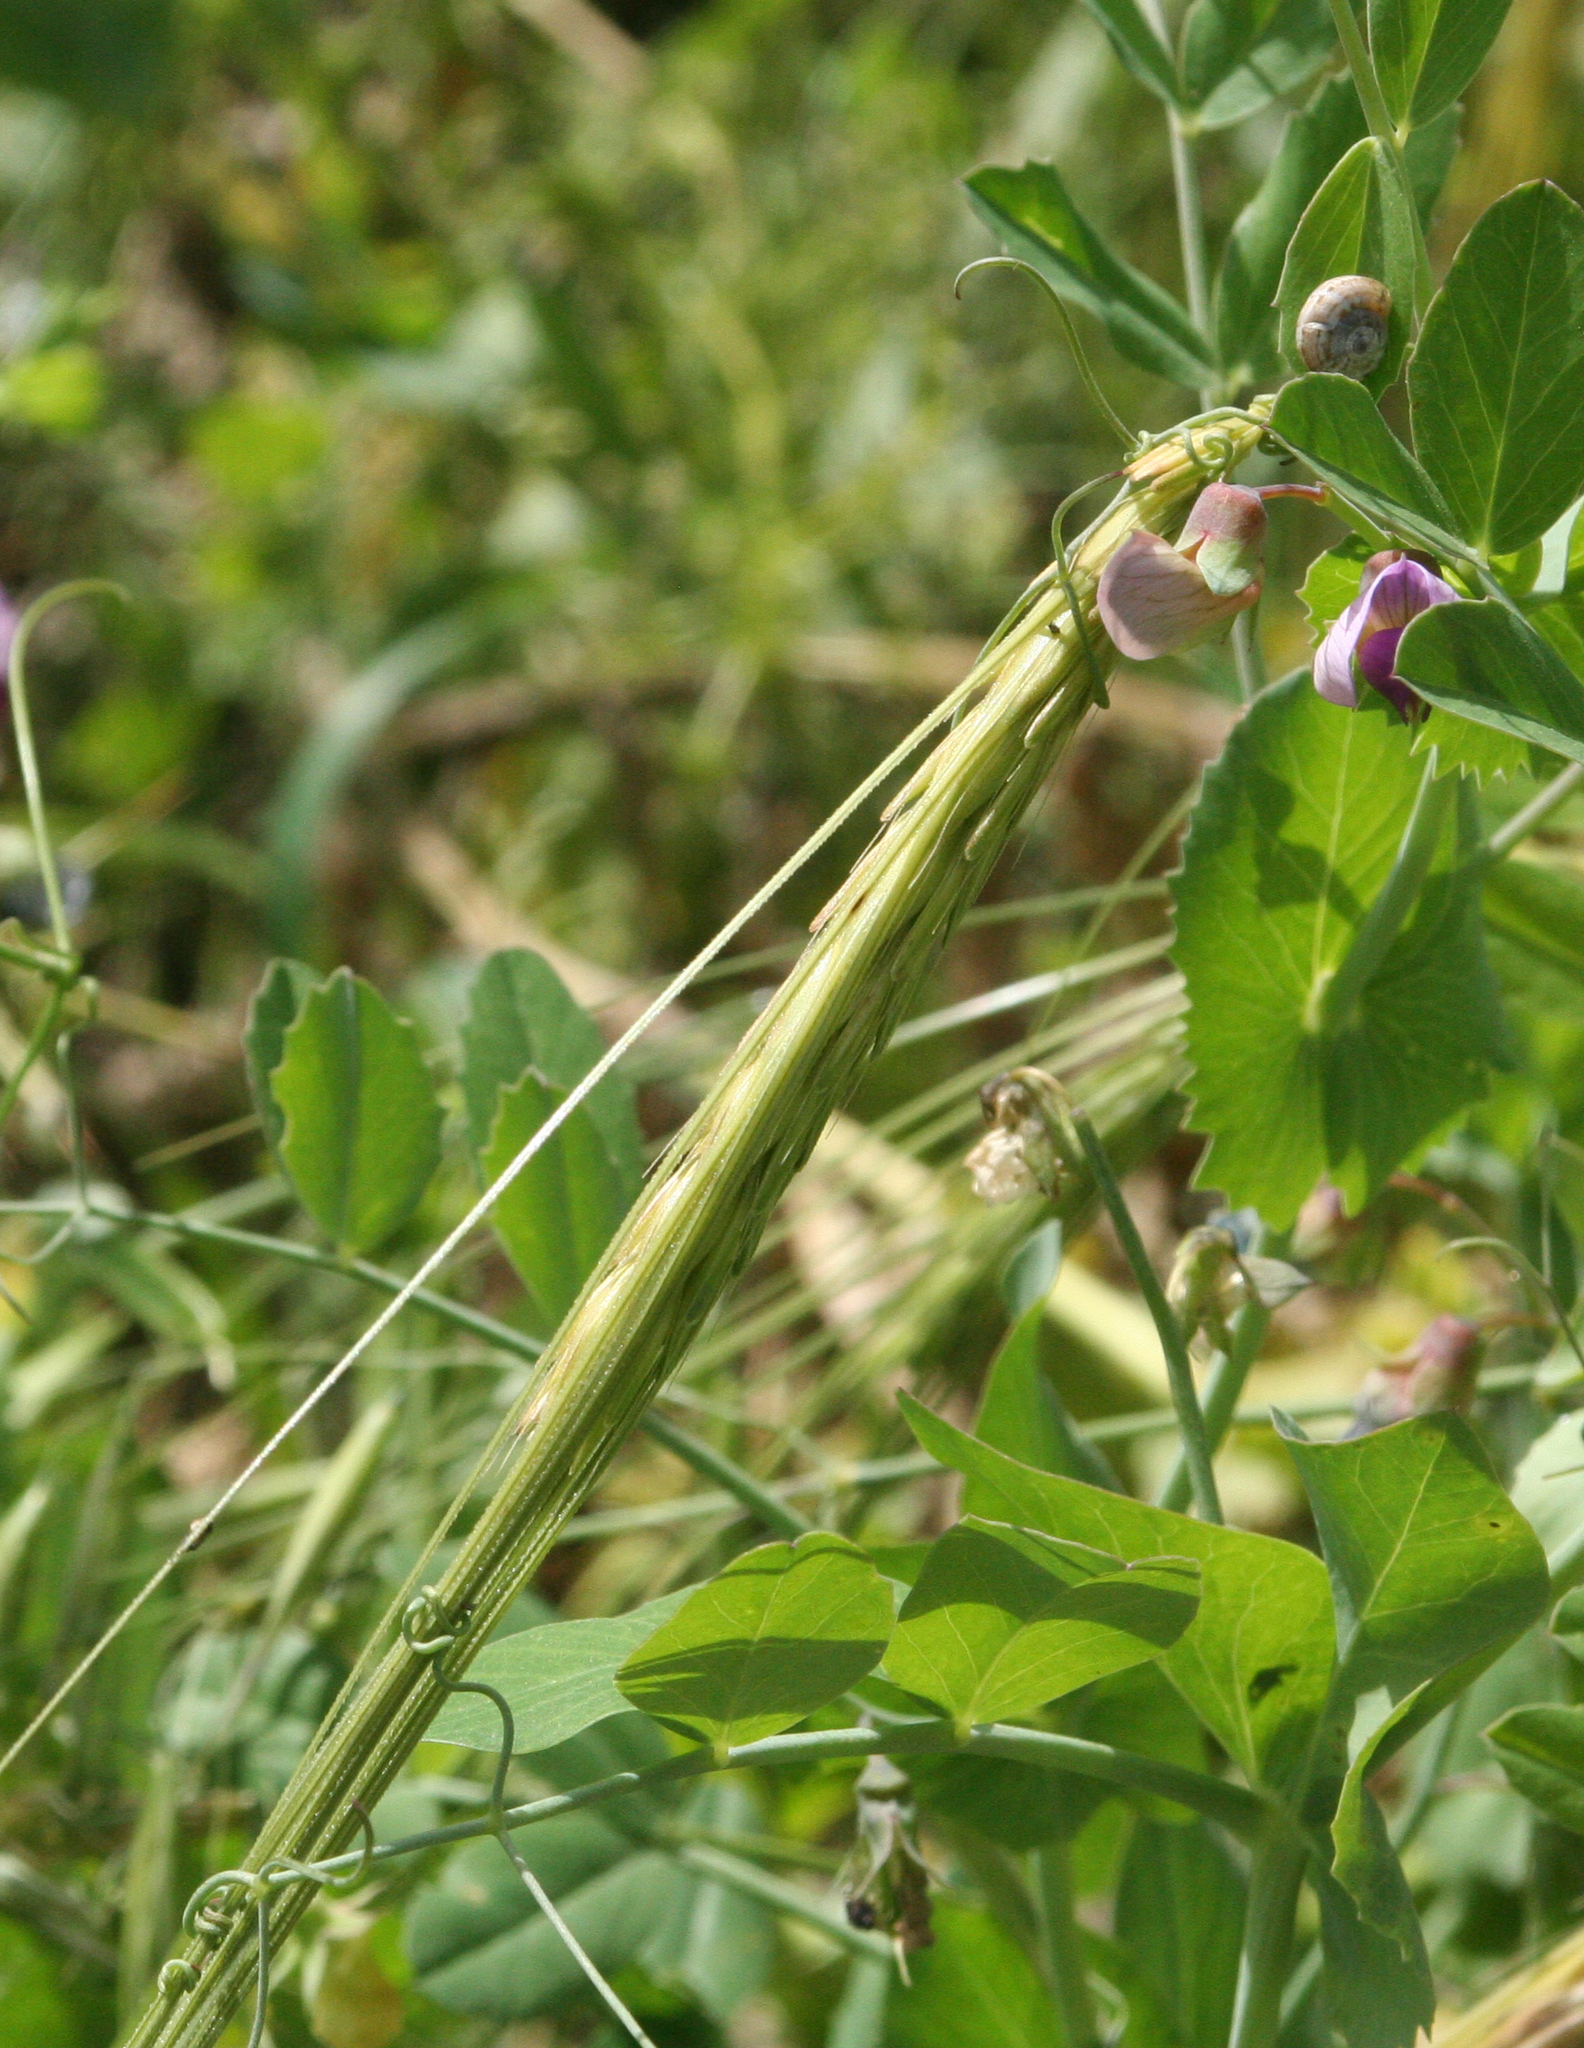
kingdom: Plantae
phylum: Tracheophyta
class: Liliopsida
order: Poales
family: Poaceae
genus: Hordeum
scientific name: Hordeum spontaneum
